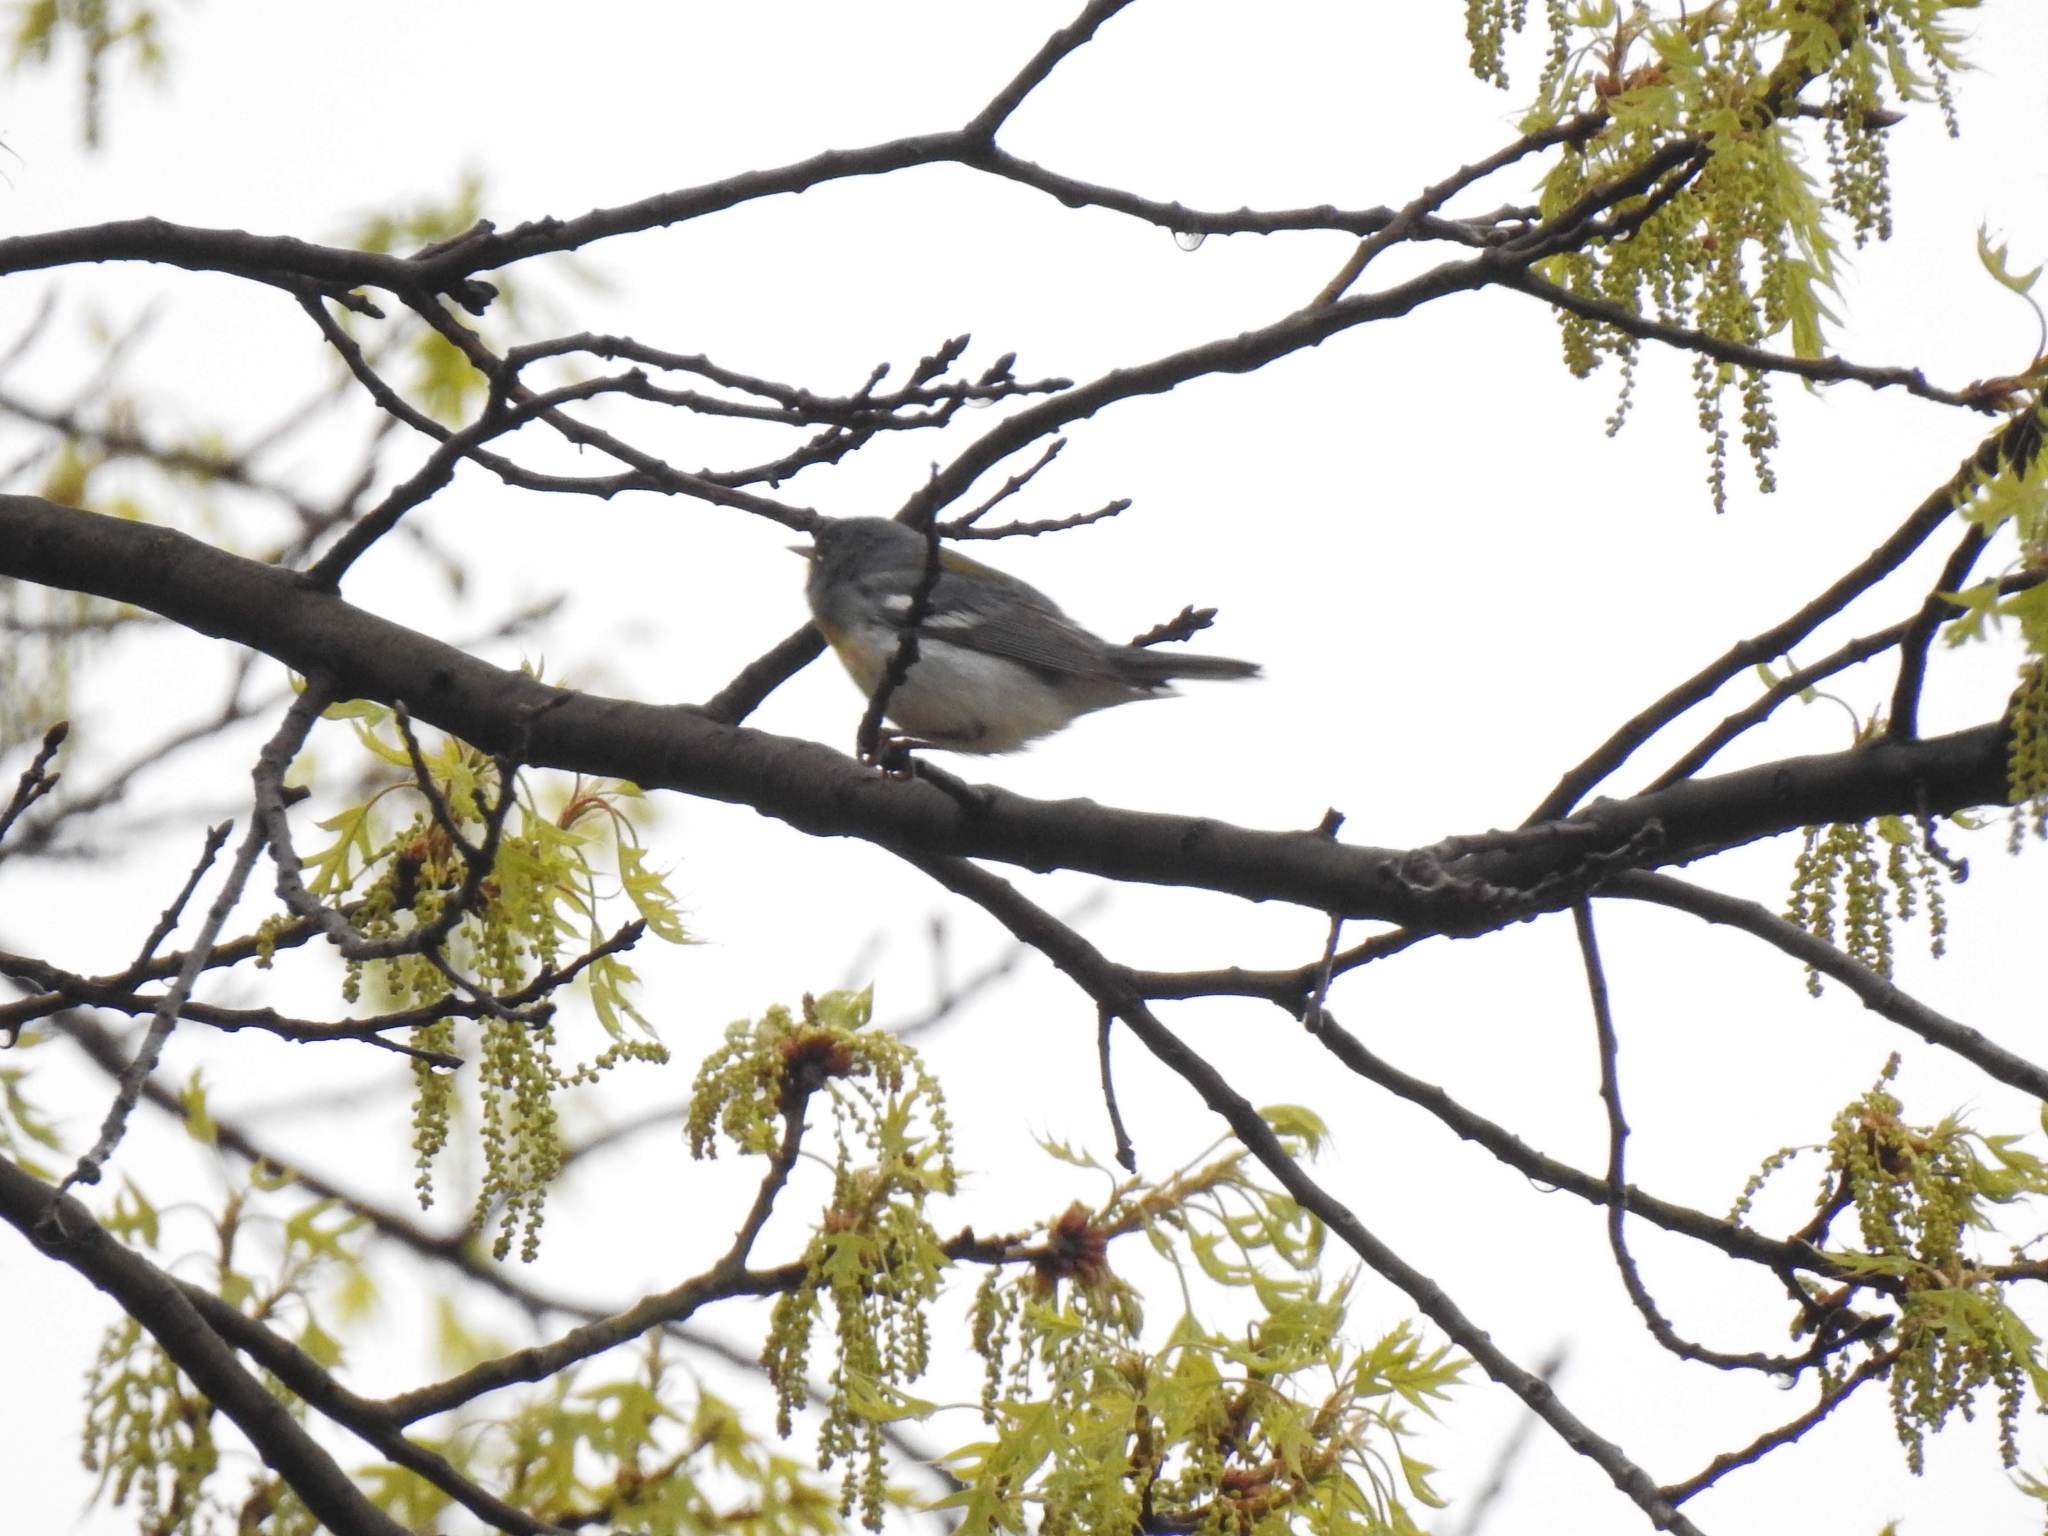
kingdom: Animalia
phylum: Chordata
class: Aves
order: Passeriformes
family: Parulidae
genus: Setophaga
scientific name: Setophaga americana
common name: Northern parula
